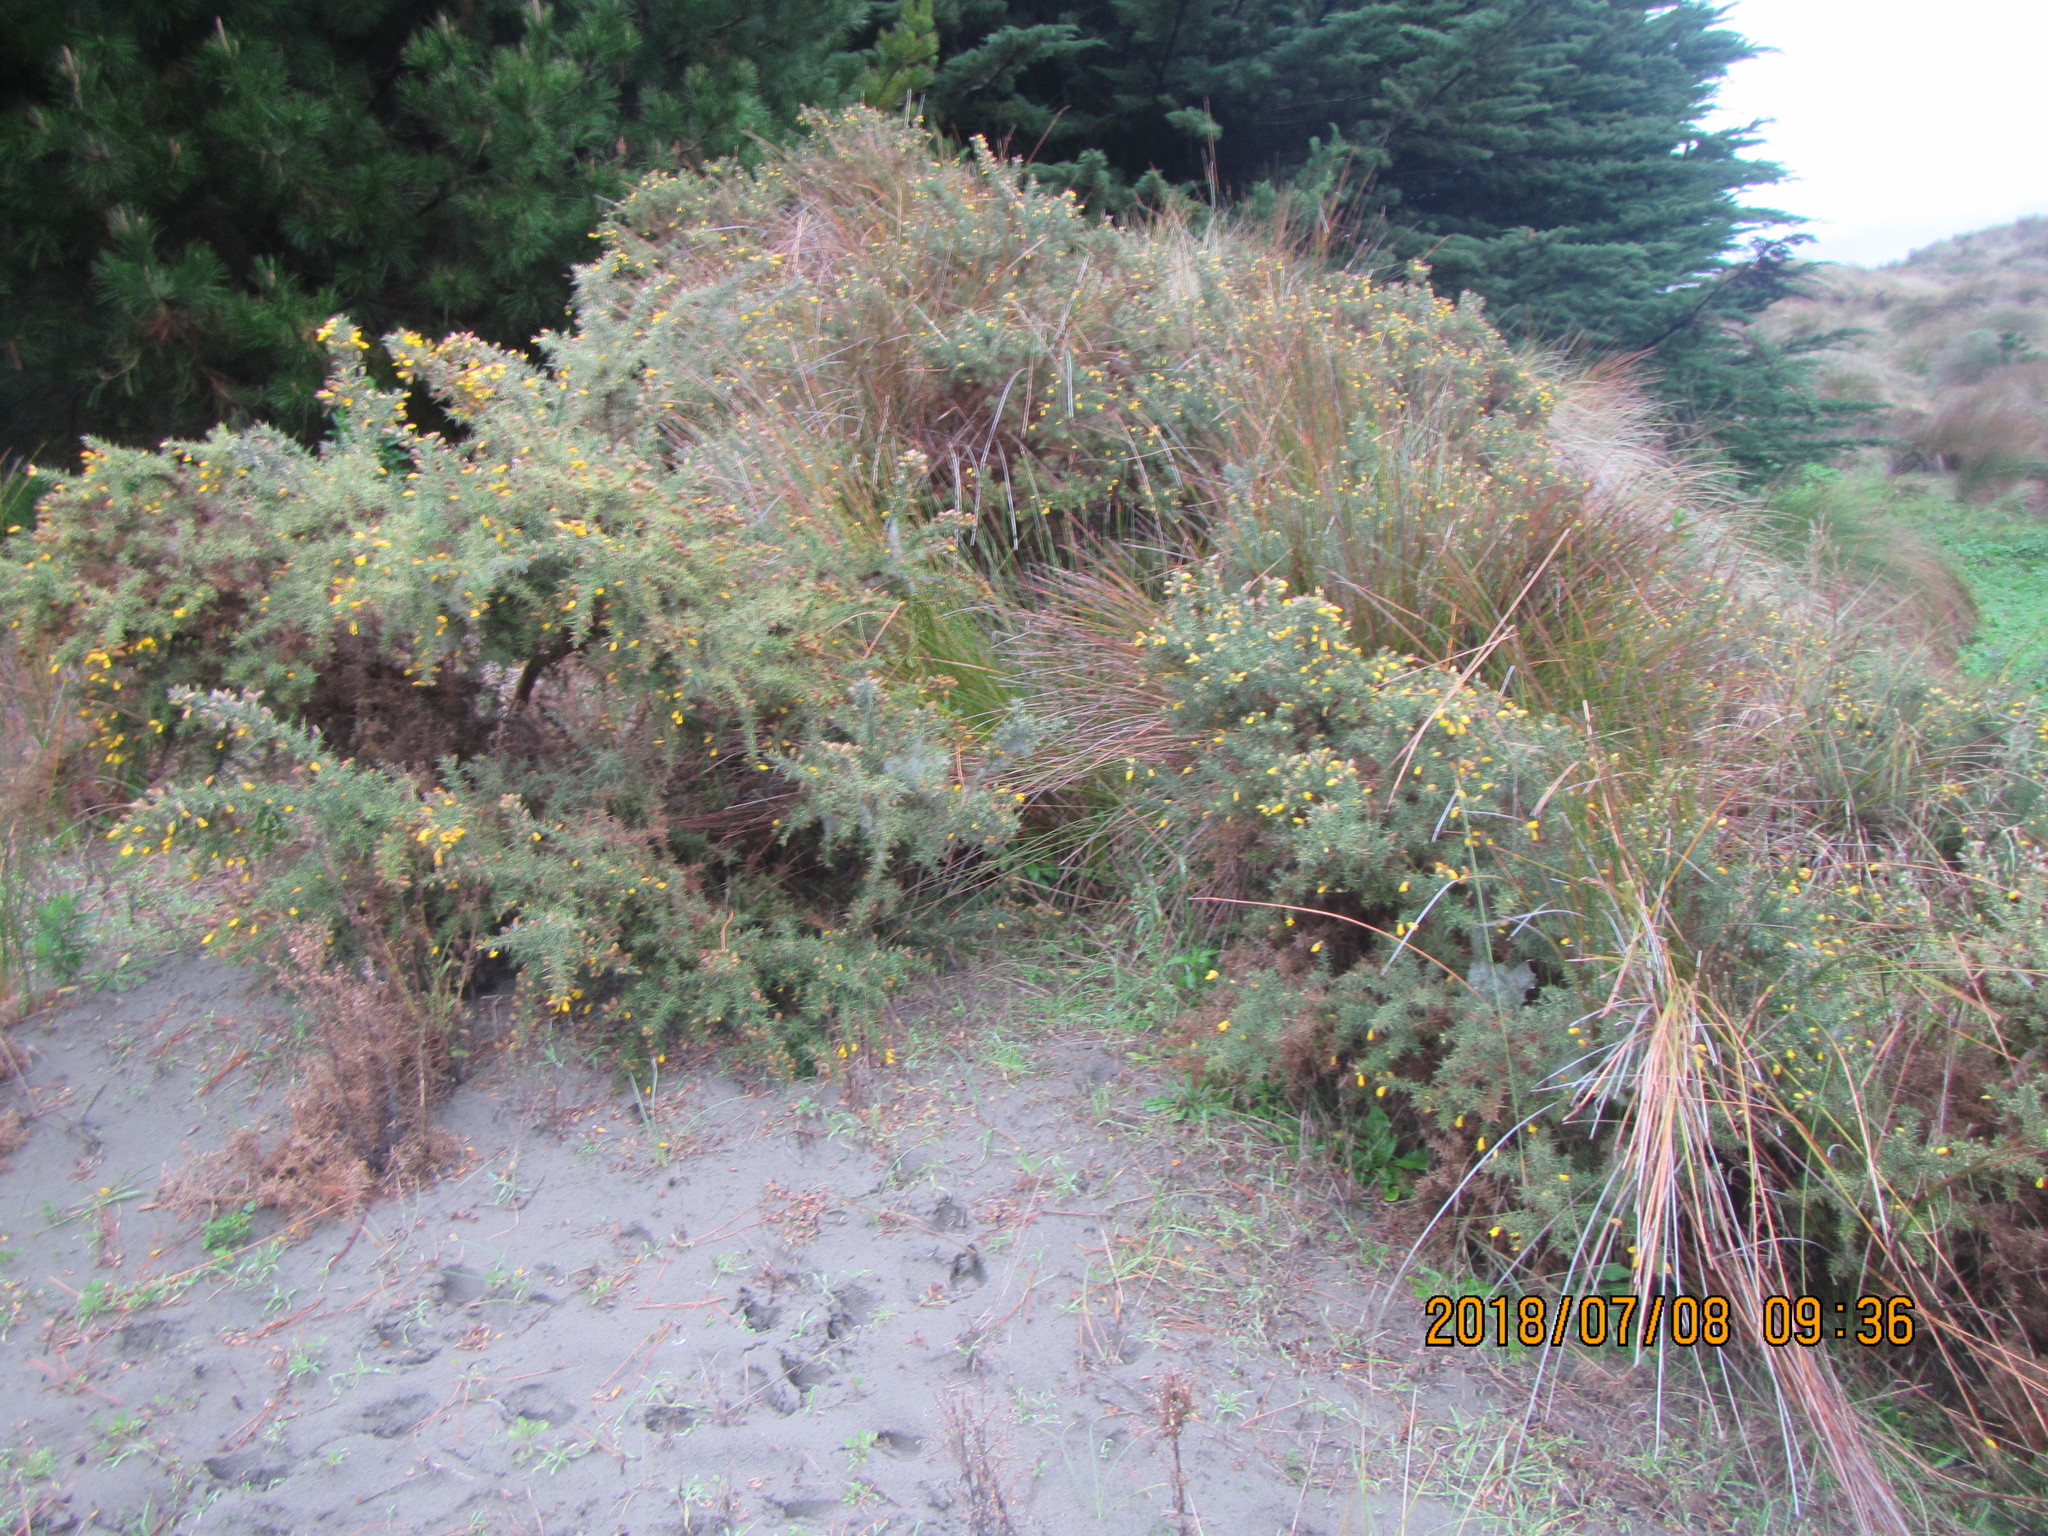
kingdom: Plantae
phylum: Tracheophyta
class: Magnoliopsida
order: Fabales
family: Fabaceae
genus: Ulex
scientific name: Ulex europaeus
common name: Common gorse
